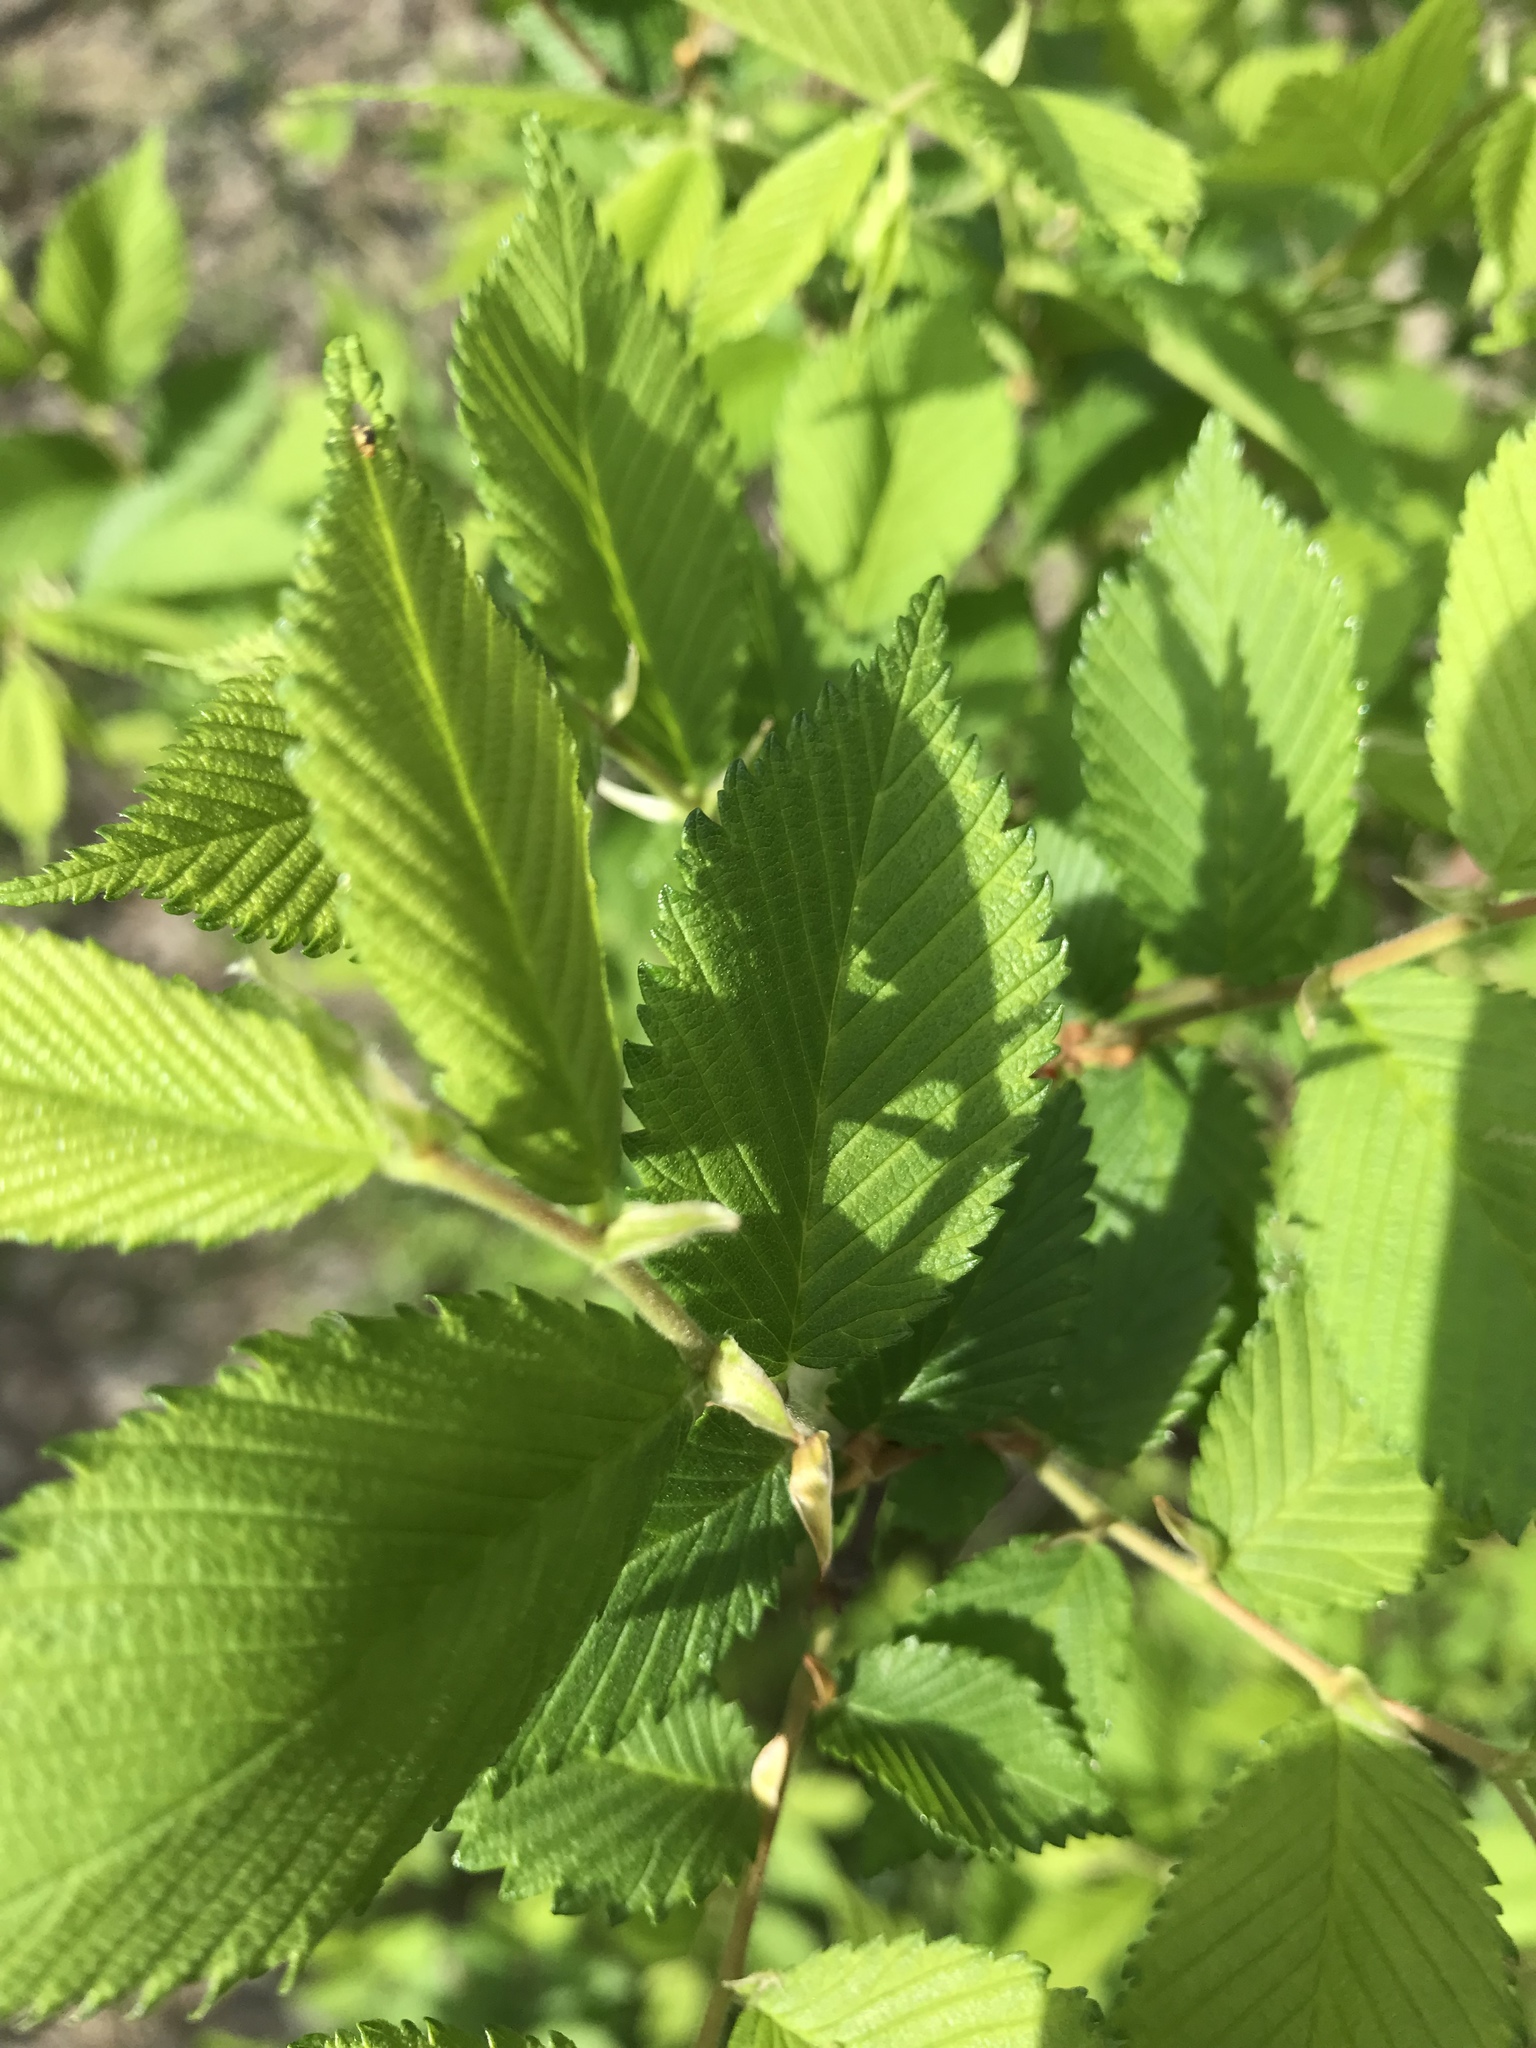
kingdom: Plantae
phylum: Tracheophyta
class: Magnoliopsida
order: Rosales
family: Ulmaceae
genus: Ulmus
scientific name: Ulmus americana
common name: American elm
